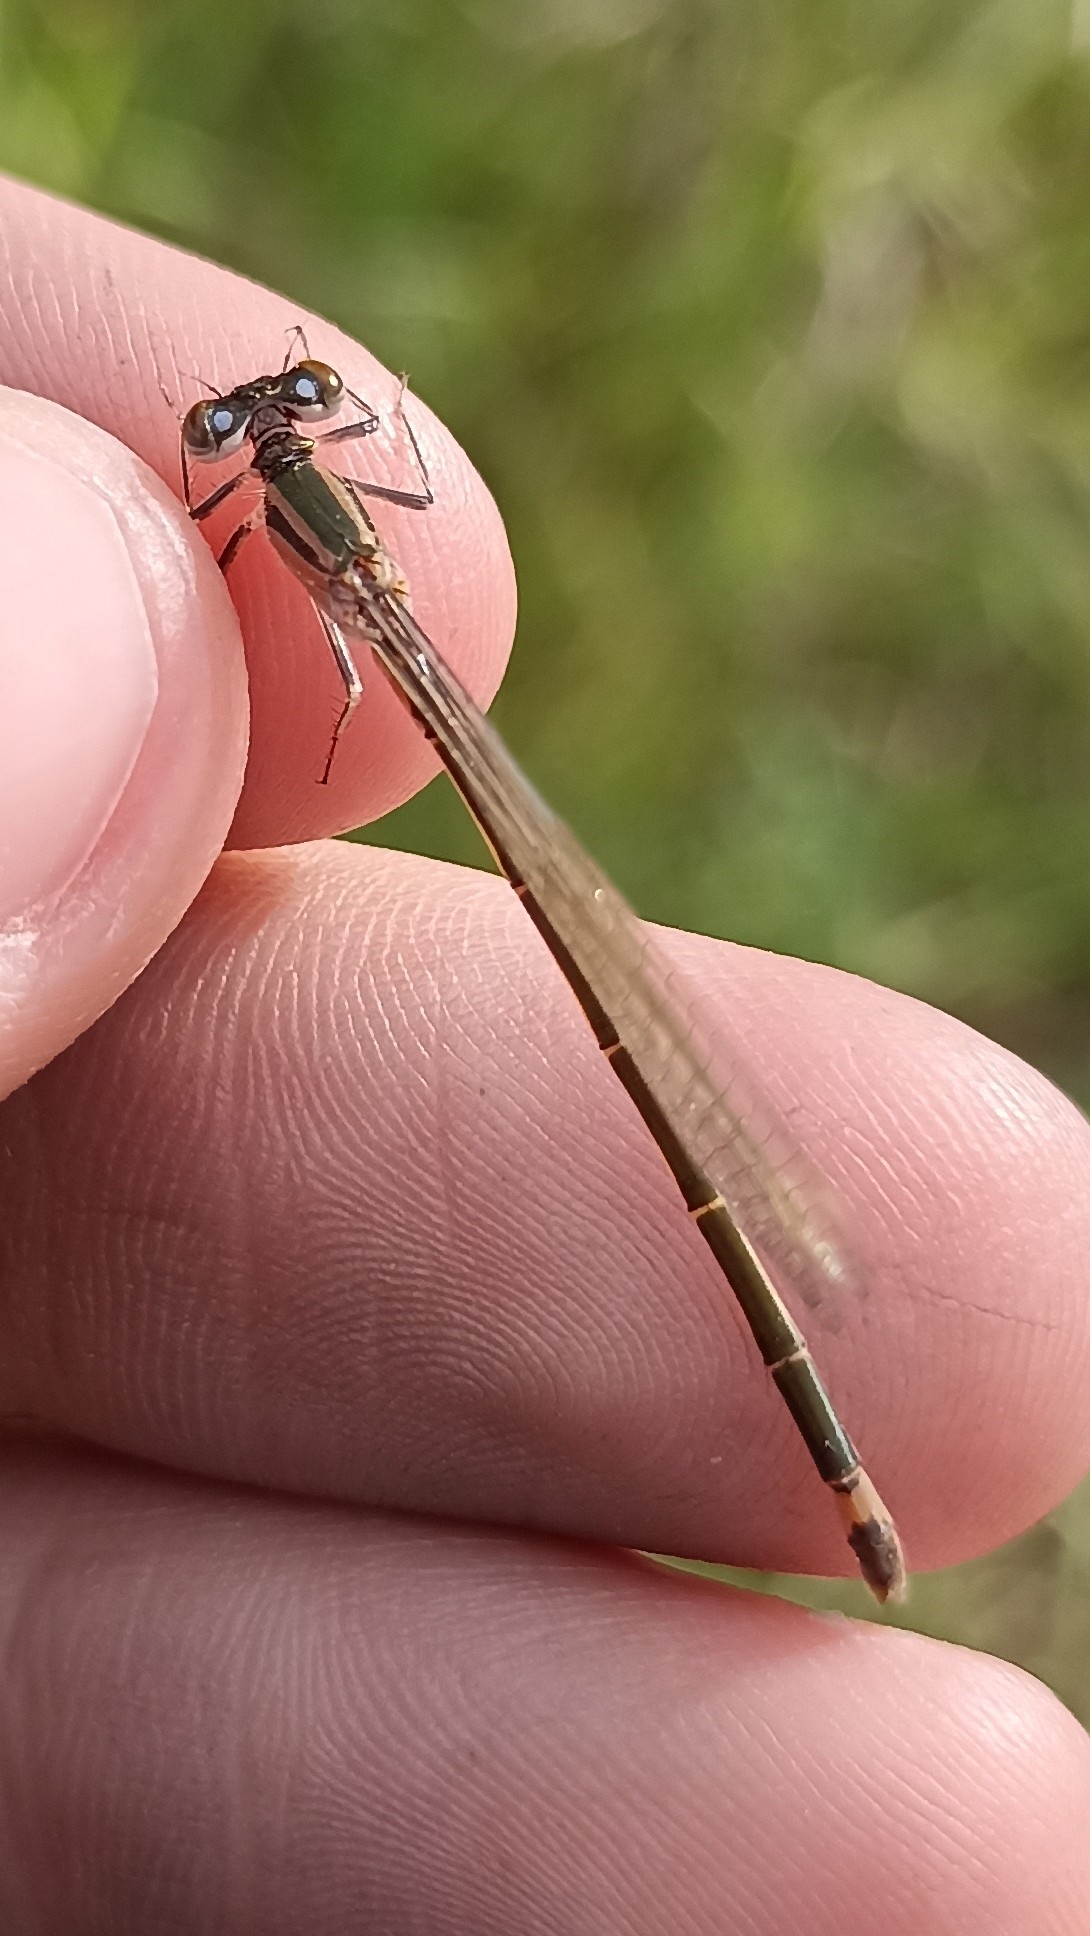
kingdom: Animalia
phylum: Arthropoda
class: Insecta
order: Odonata
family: Coenagrionidae
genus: Ischnura
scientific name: Ischnura elegans
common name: Blue-tailed damselfly
